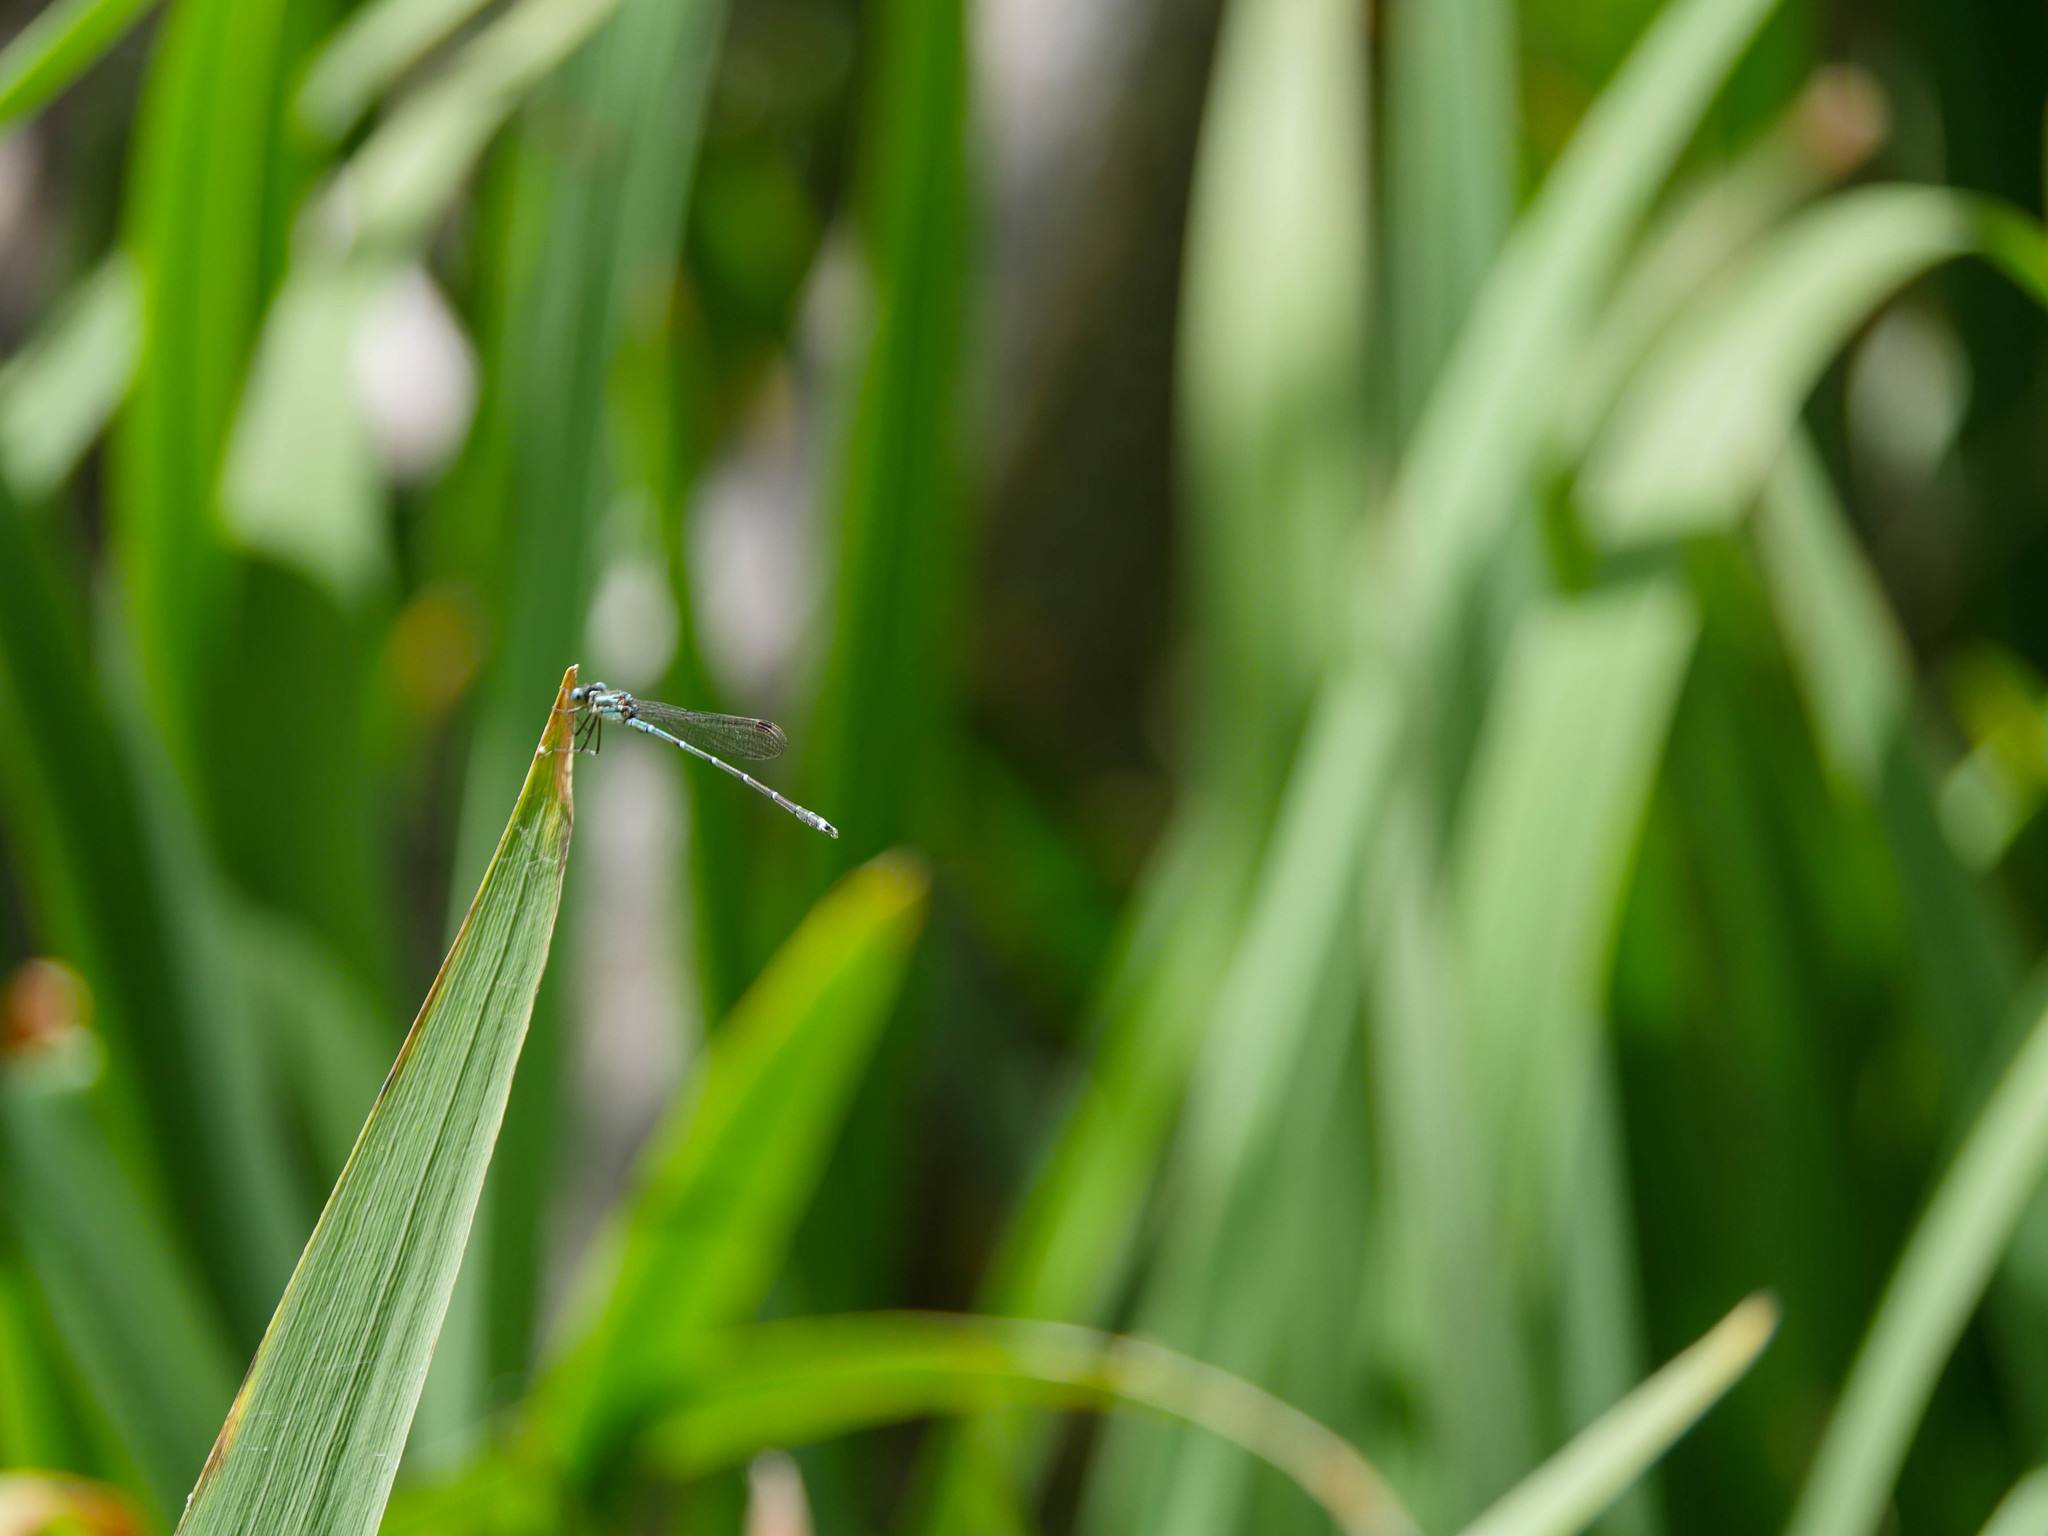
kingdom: Animalia
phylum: Arthropoda
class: Insecta
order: Odonata
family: Lestidae
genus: Austrolestes
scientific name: Austrolestes colensonis
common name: Blue damselfly
